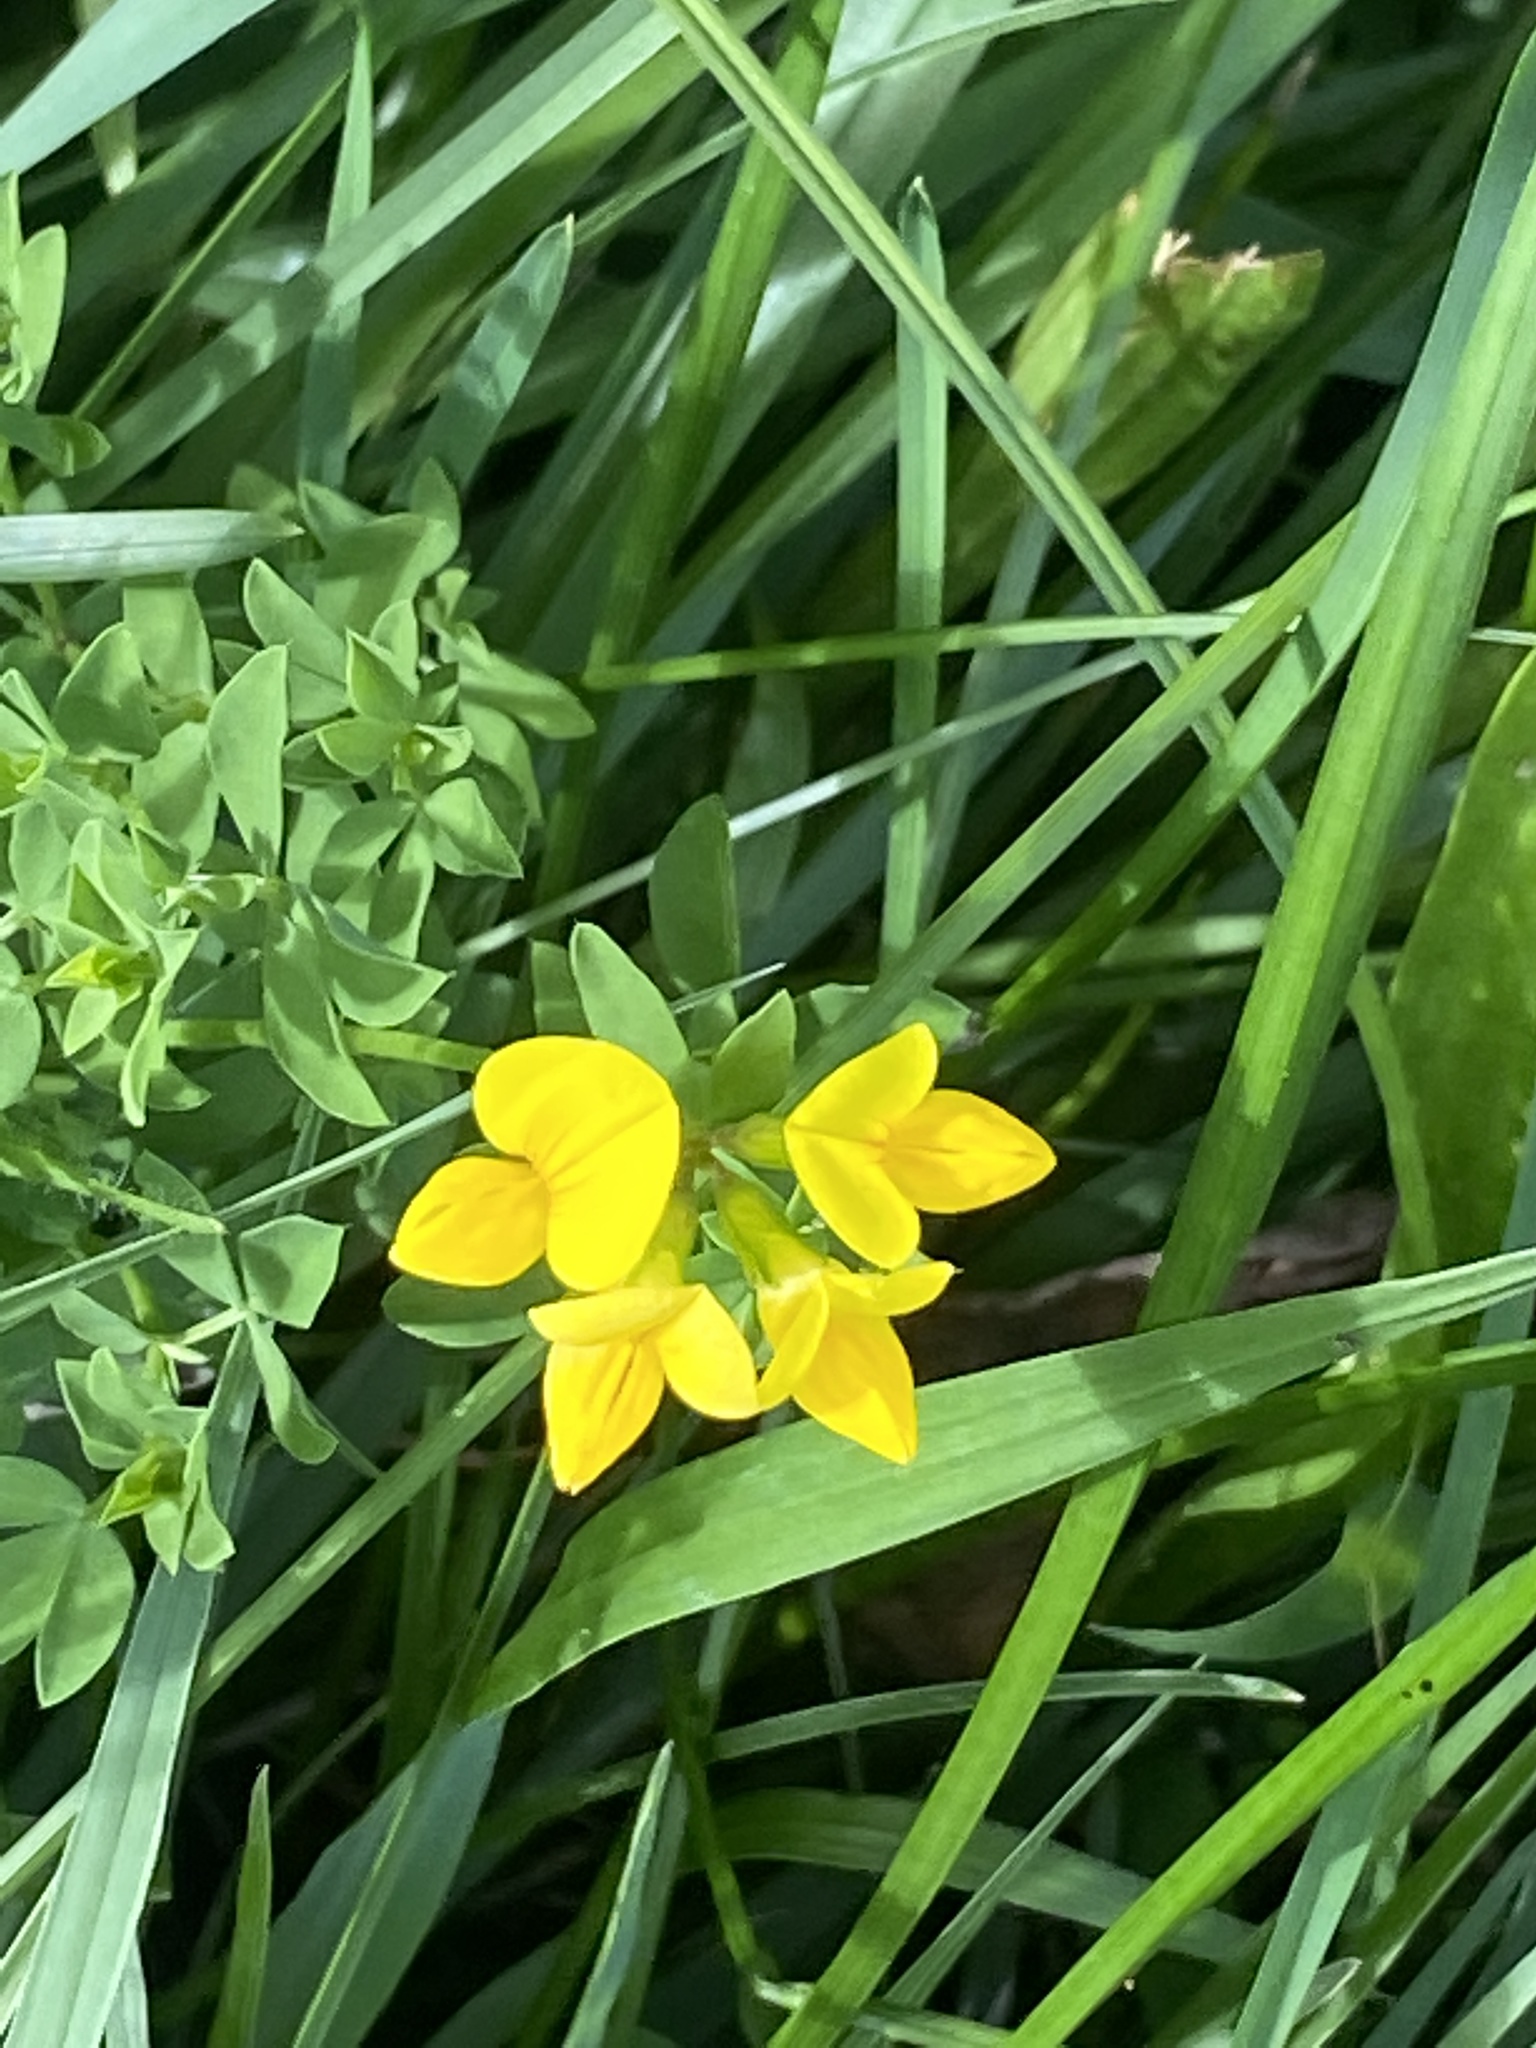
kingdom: Plantae
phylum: Tracheophyta
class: Magnoliopsida
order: Fabales
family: Fabaceae
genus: Lotus
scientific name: Lotus corniculatus
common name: Common bird's-foot-trefoil
